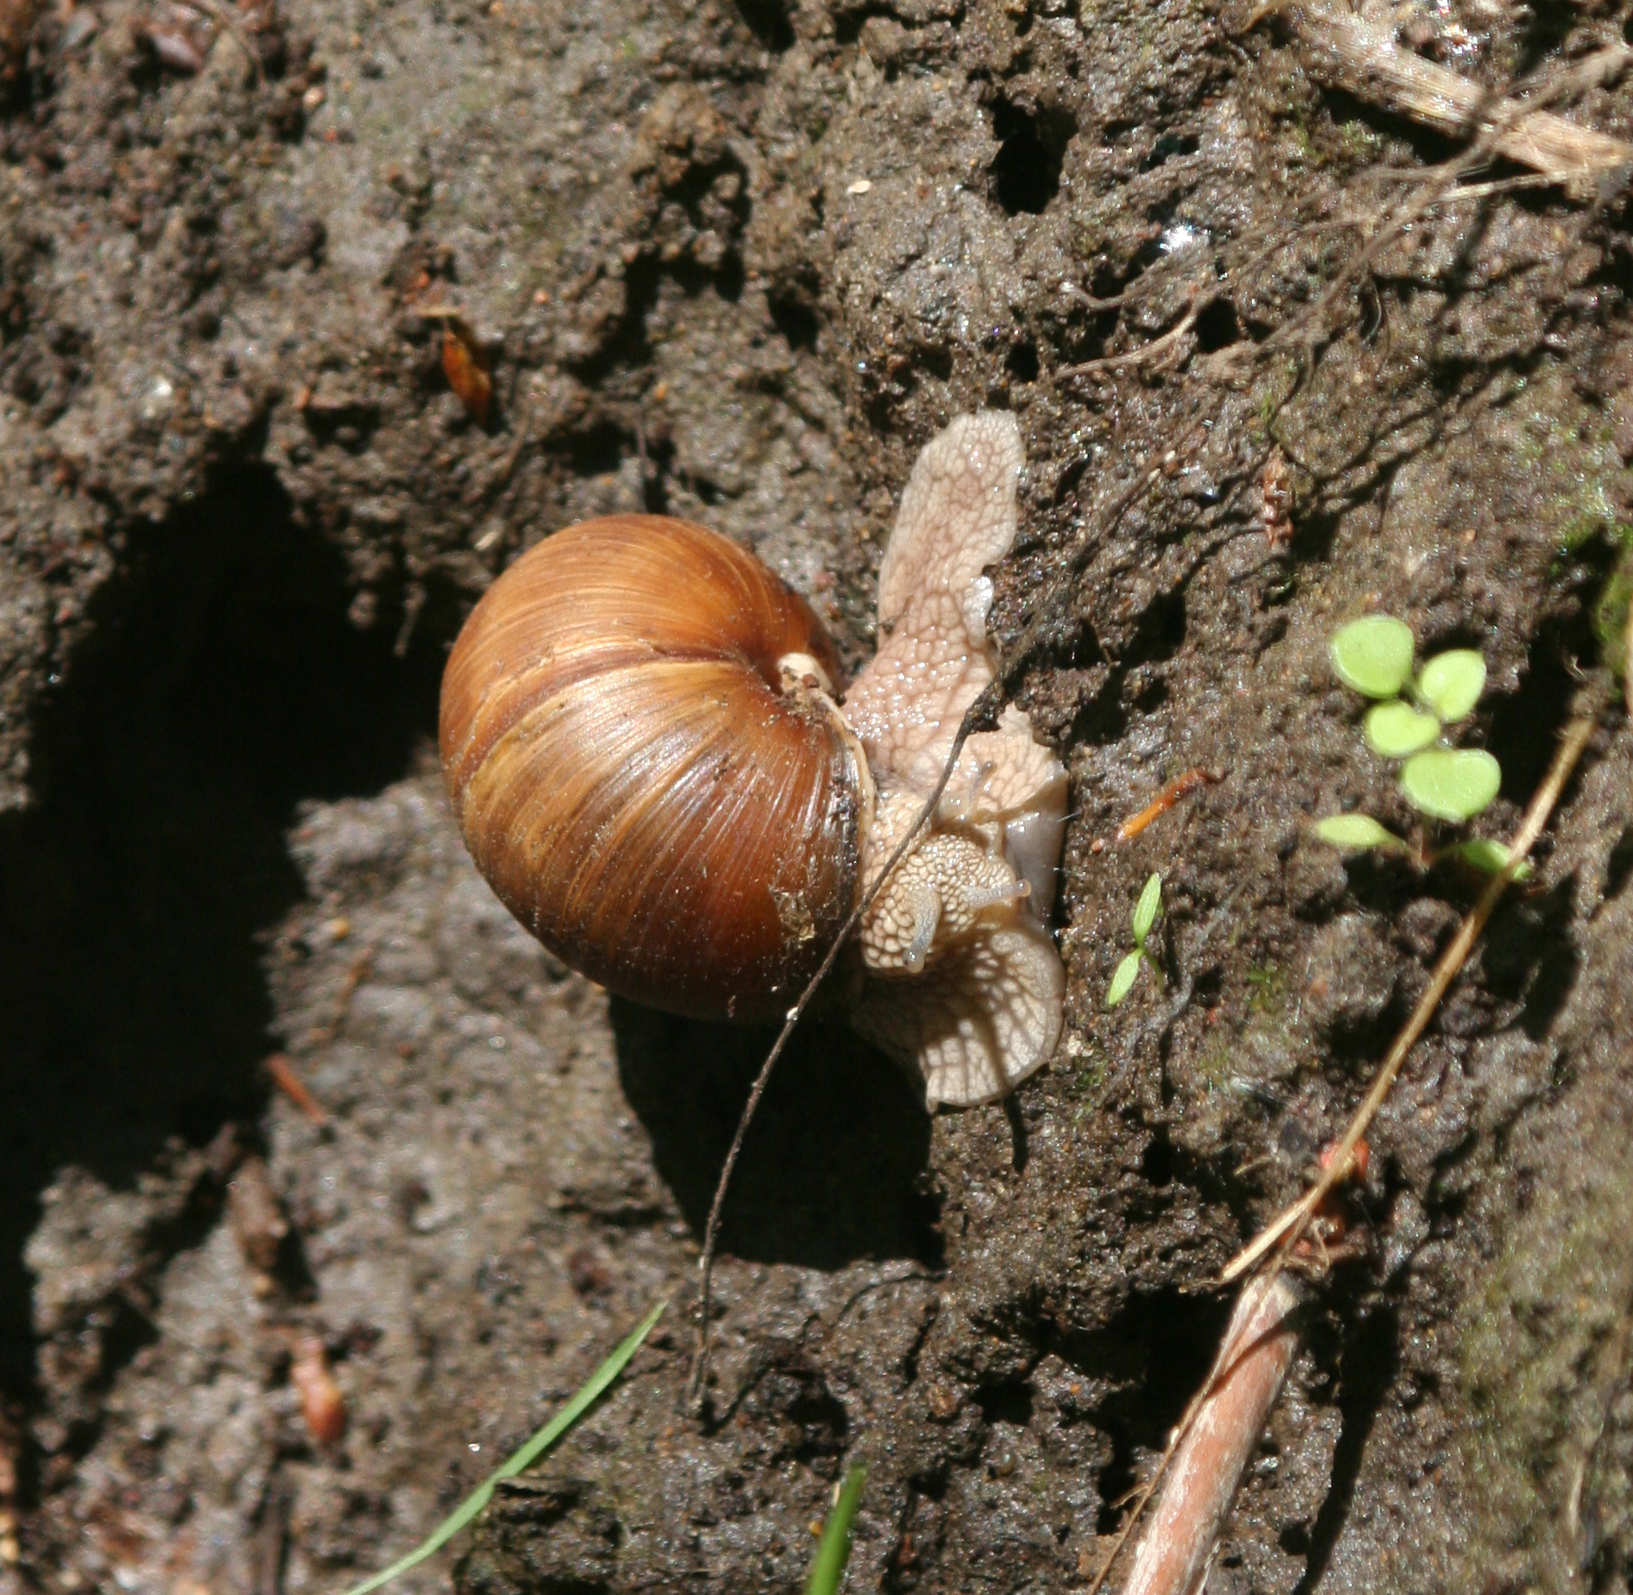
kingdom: Animalia
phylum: Mollusca
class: Gastropoda
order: Stylommatophora
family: Helicidae
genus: Helix
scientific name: Helix pomatia
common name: Roman snail
